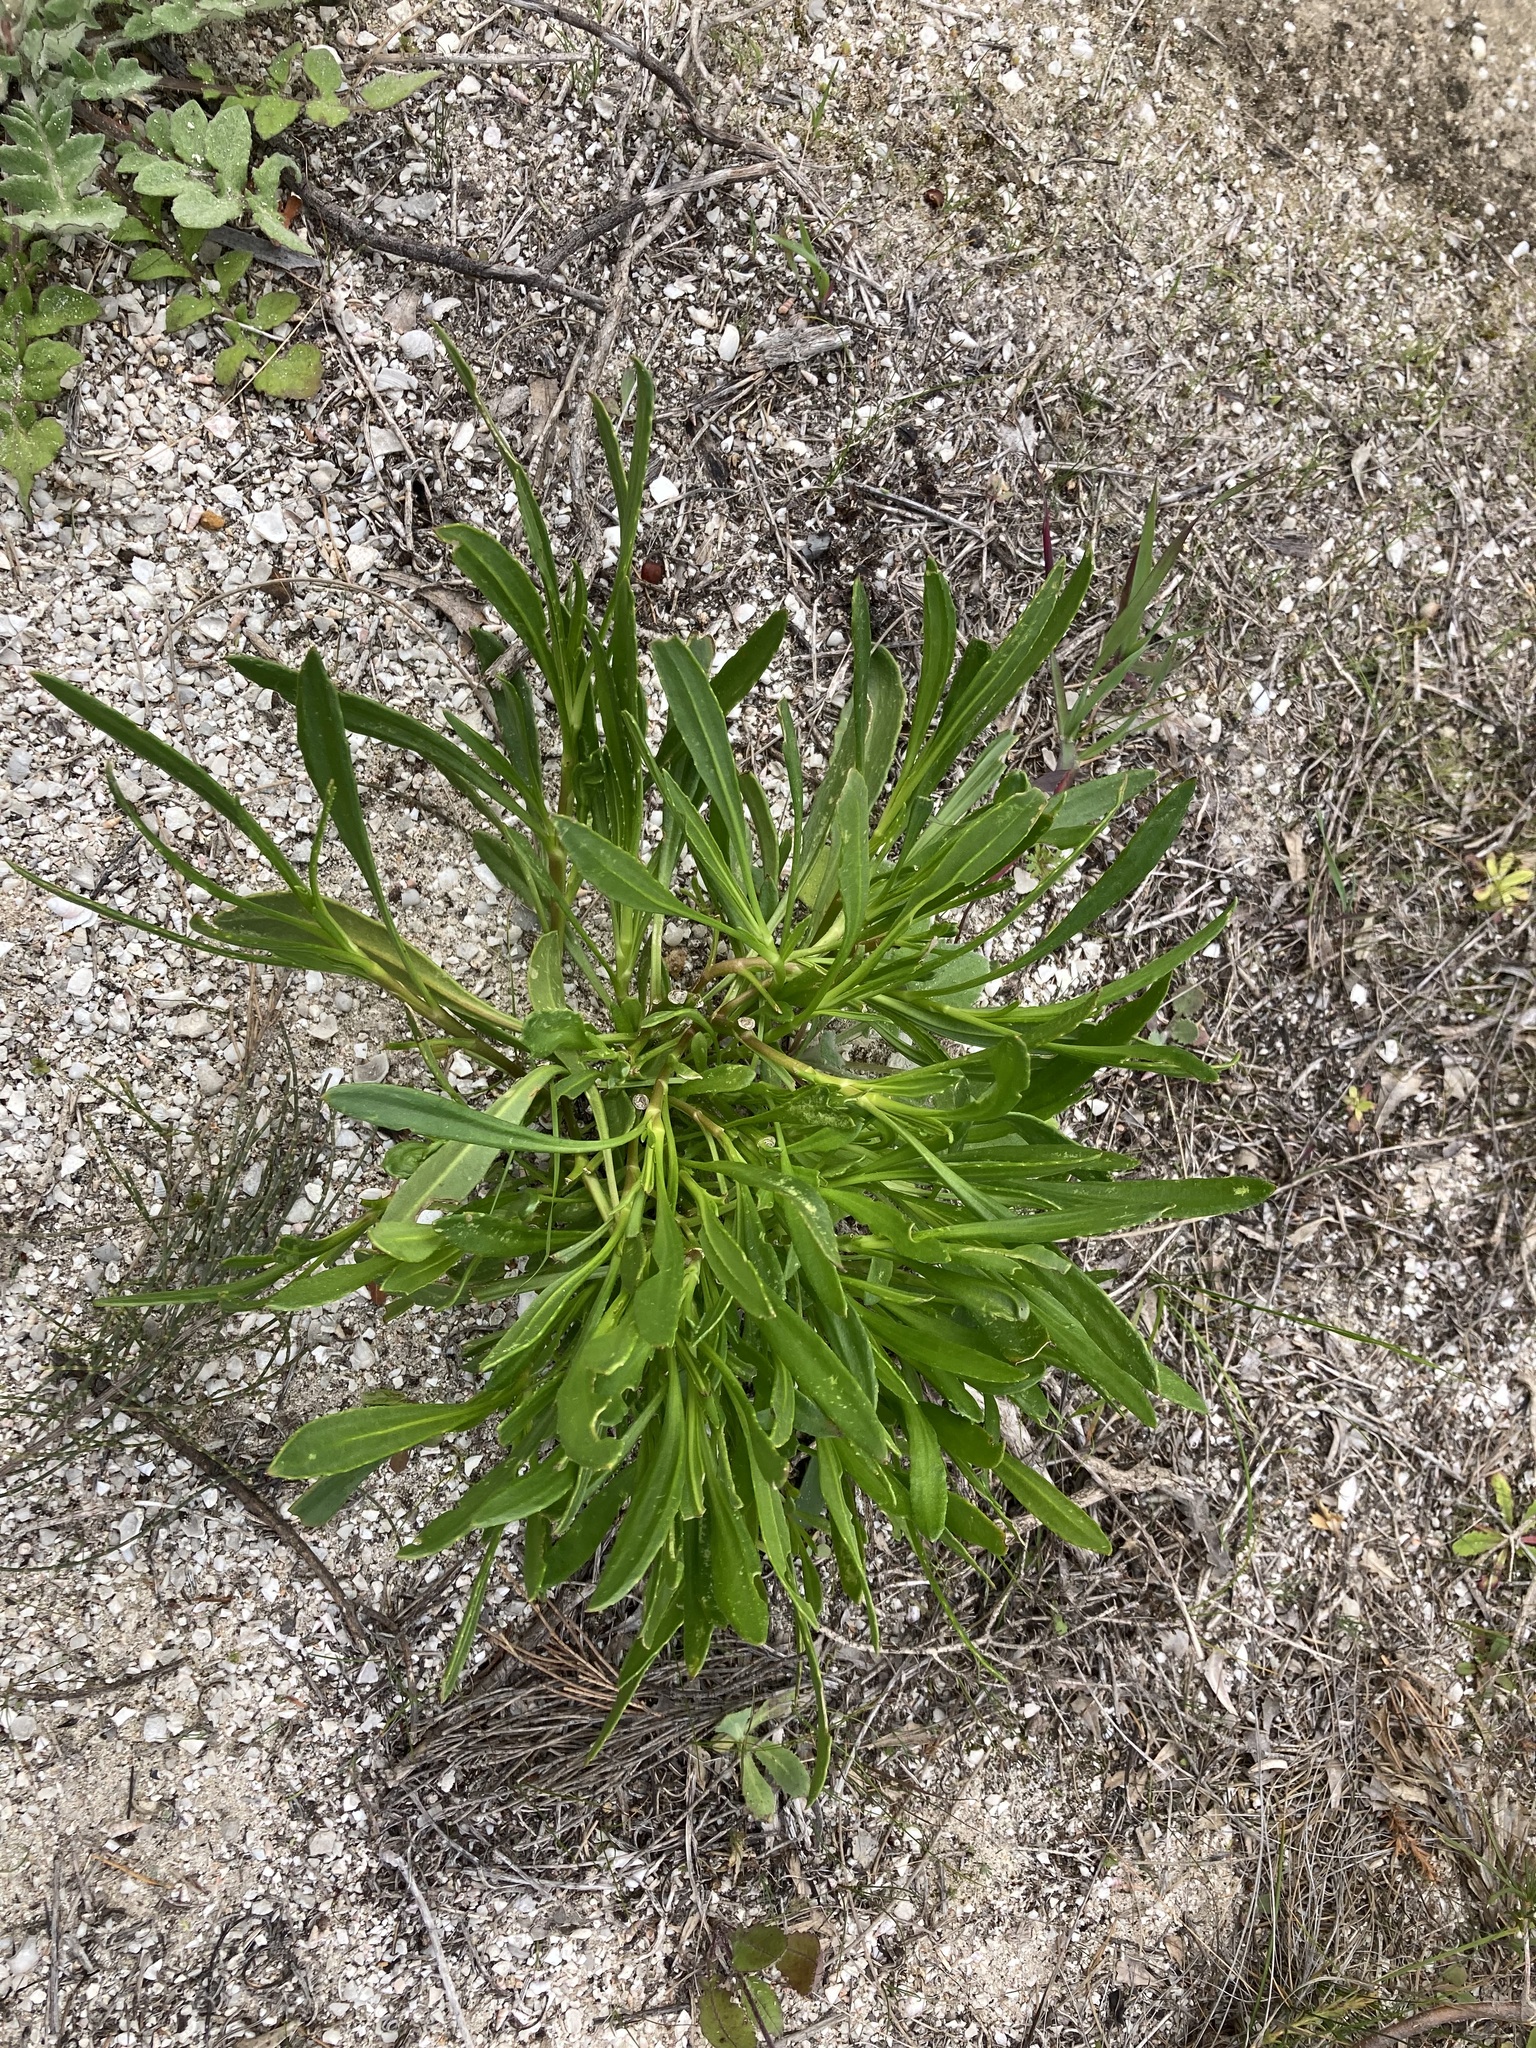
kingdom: Plantae
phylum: Tracheophyta
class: Magnoliopsida
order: Asterales
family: Goodeniaceae
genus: Scaevola
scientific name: Scaevola repens
